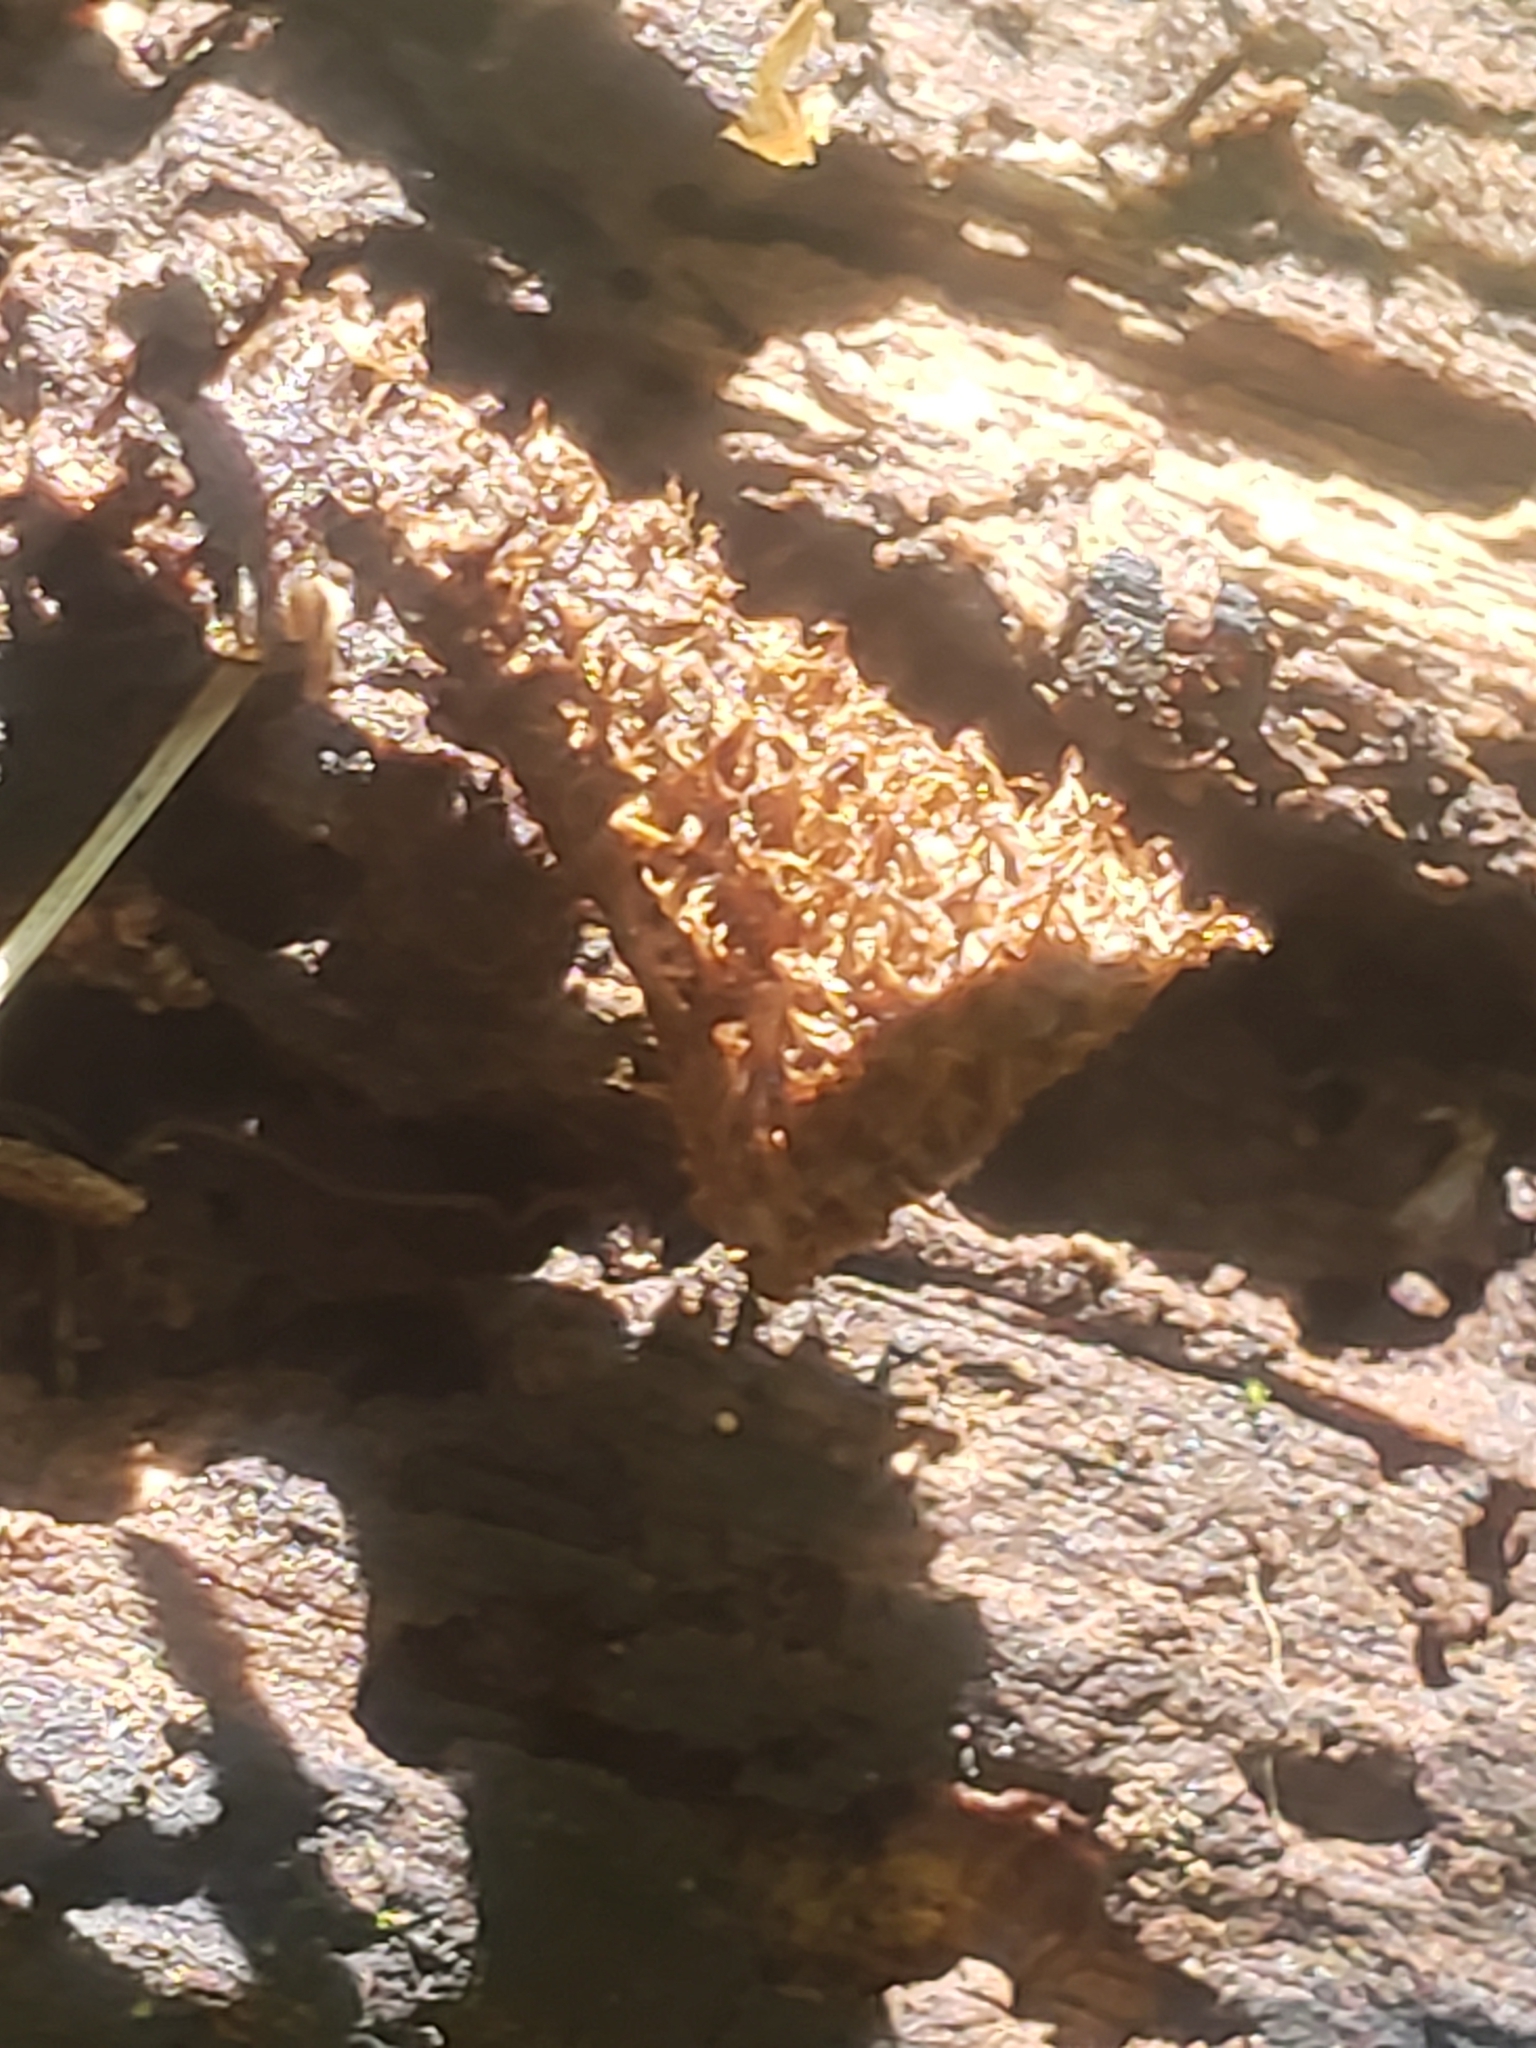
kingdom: Fungi
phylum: Basidiomycota
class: Agaricomycetes
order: Agaricales
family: Agaricaceae
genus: Cyathus
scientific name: Cyathus striatus
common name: Fluted bird's nest
